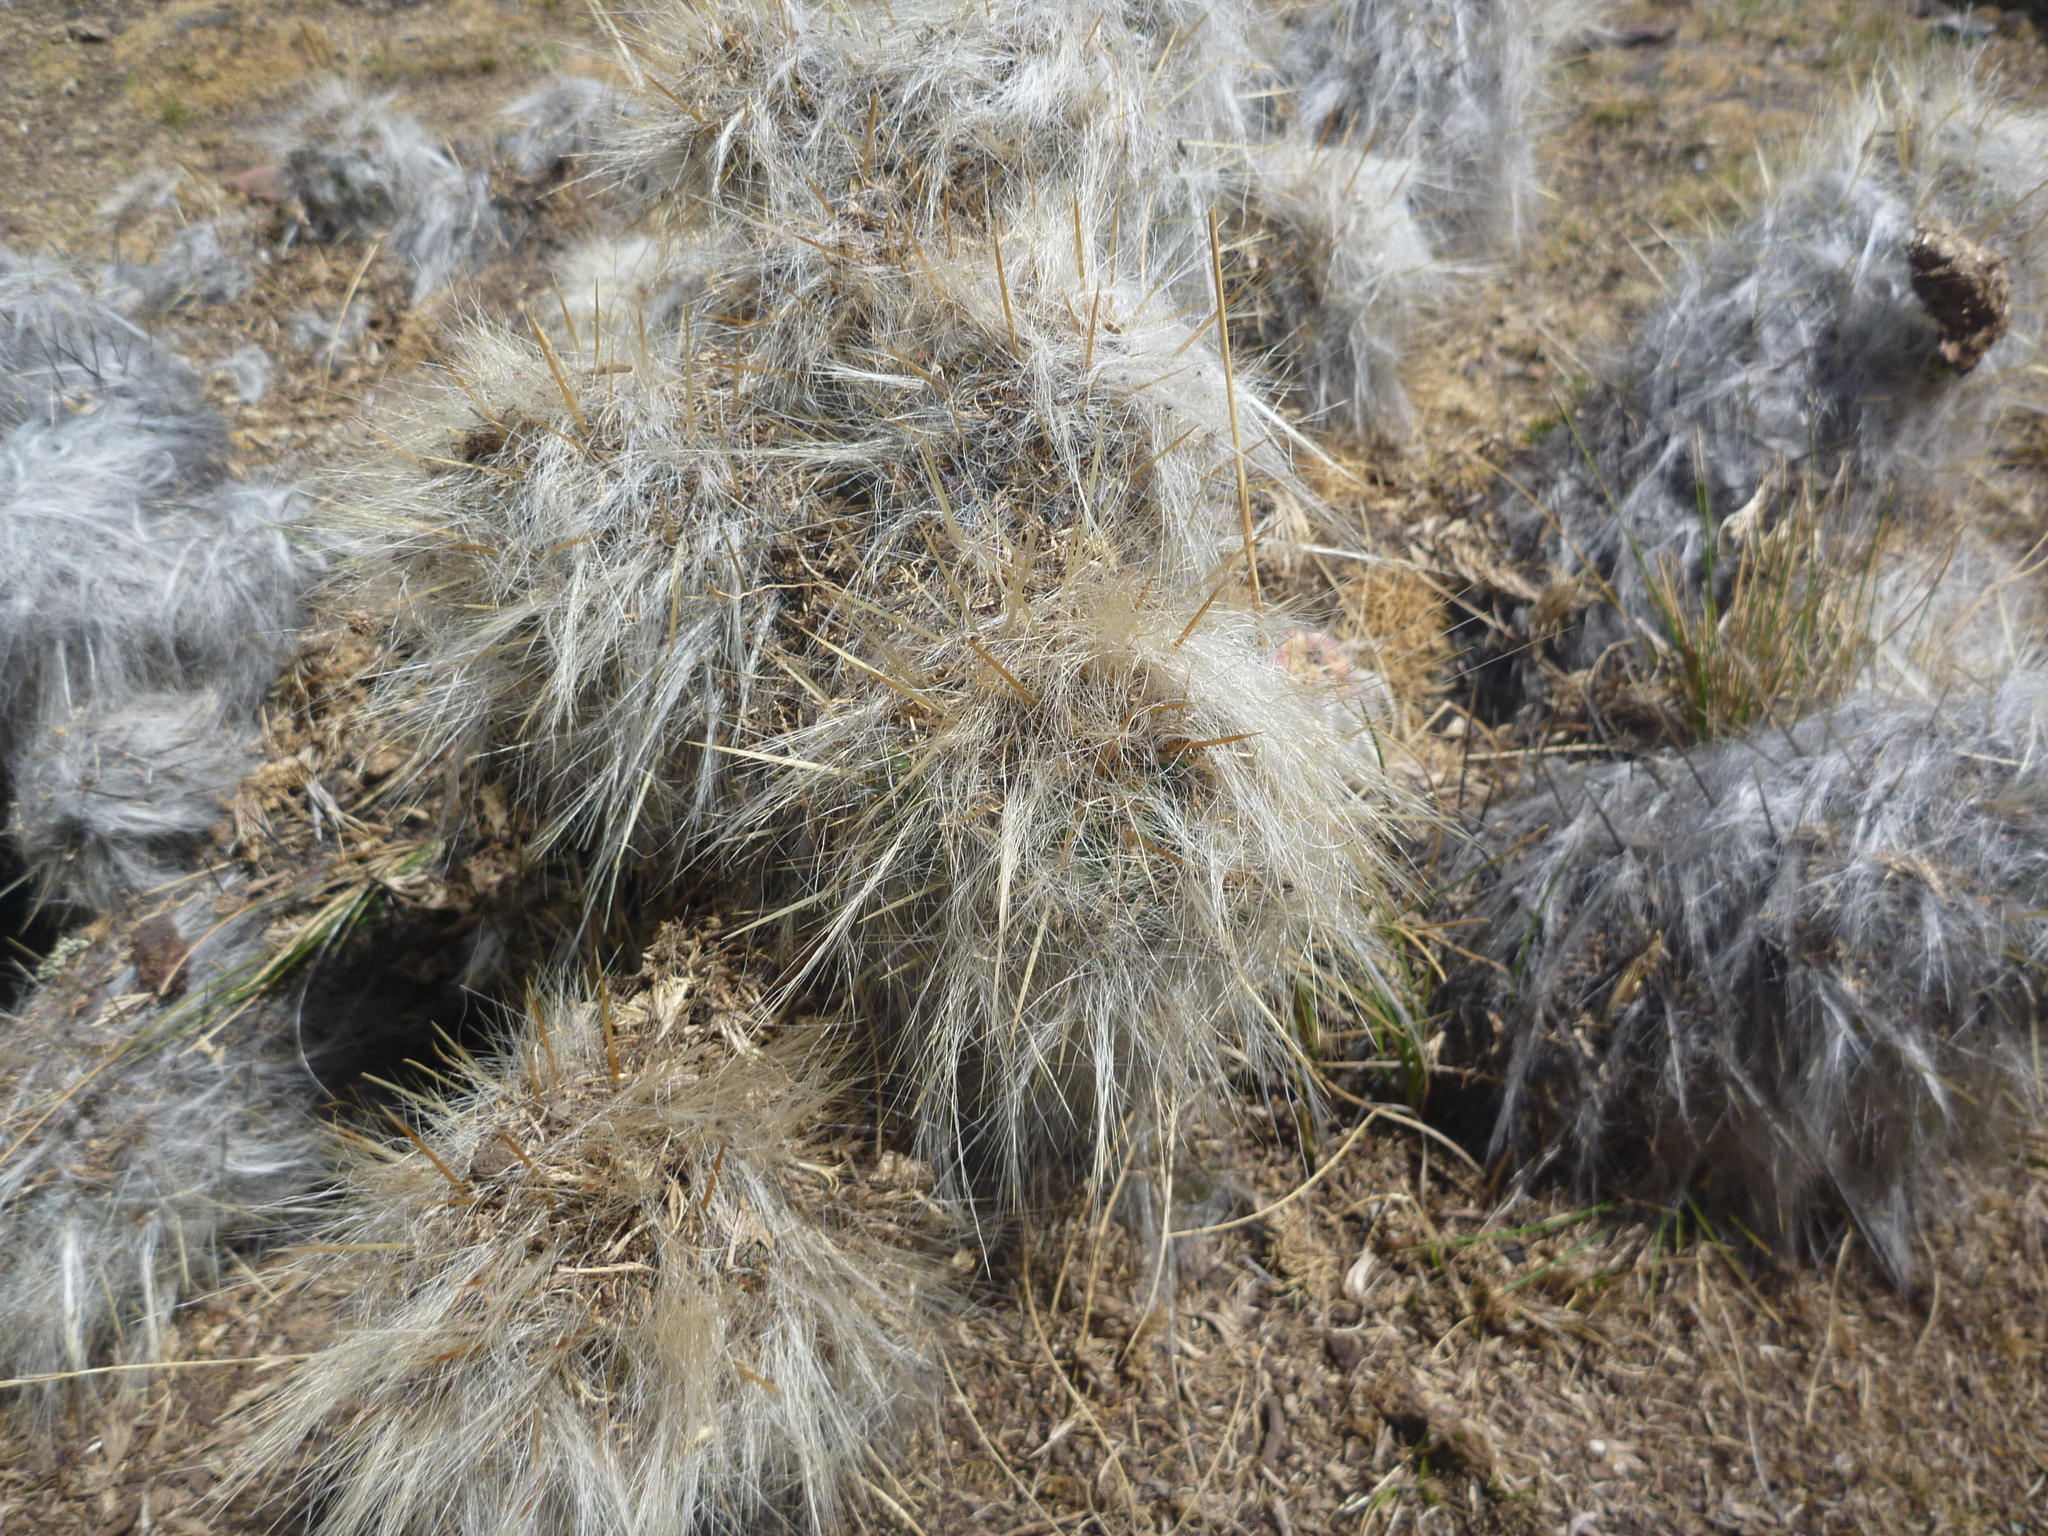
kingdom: Plantae
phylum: Tracheophyta
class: Magnoliopsida
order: Caryophyllales
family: Cactaceae
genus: Austrocylindropuntia
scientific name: Austrocylindropuntia floccosa
